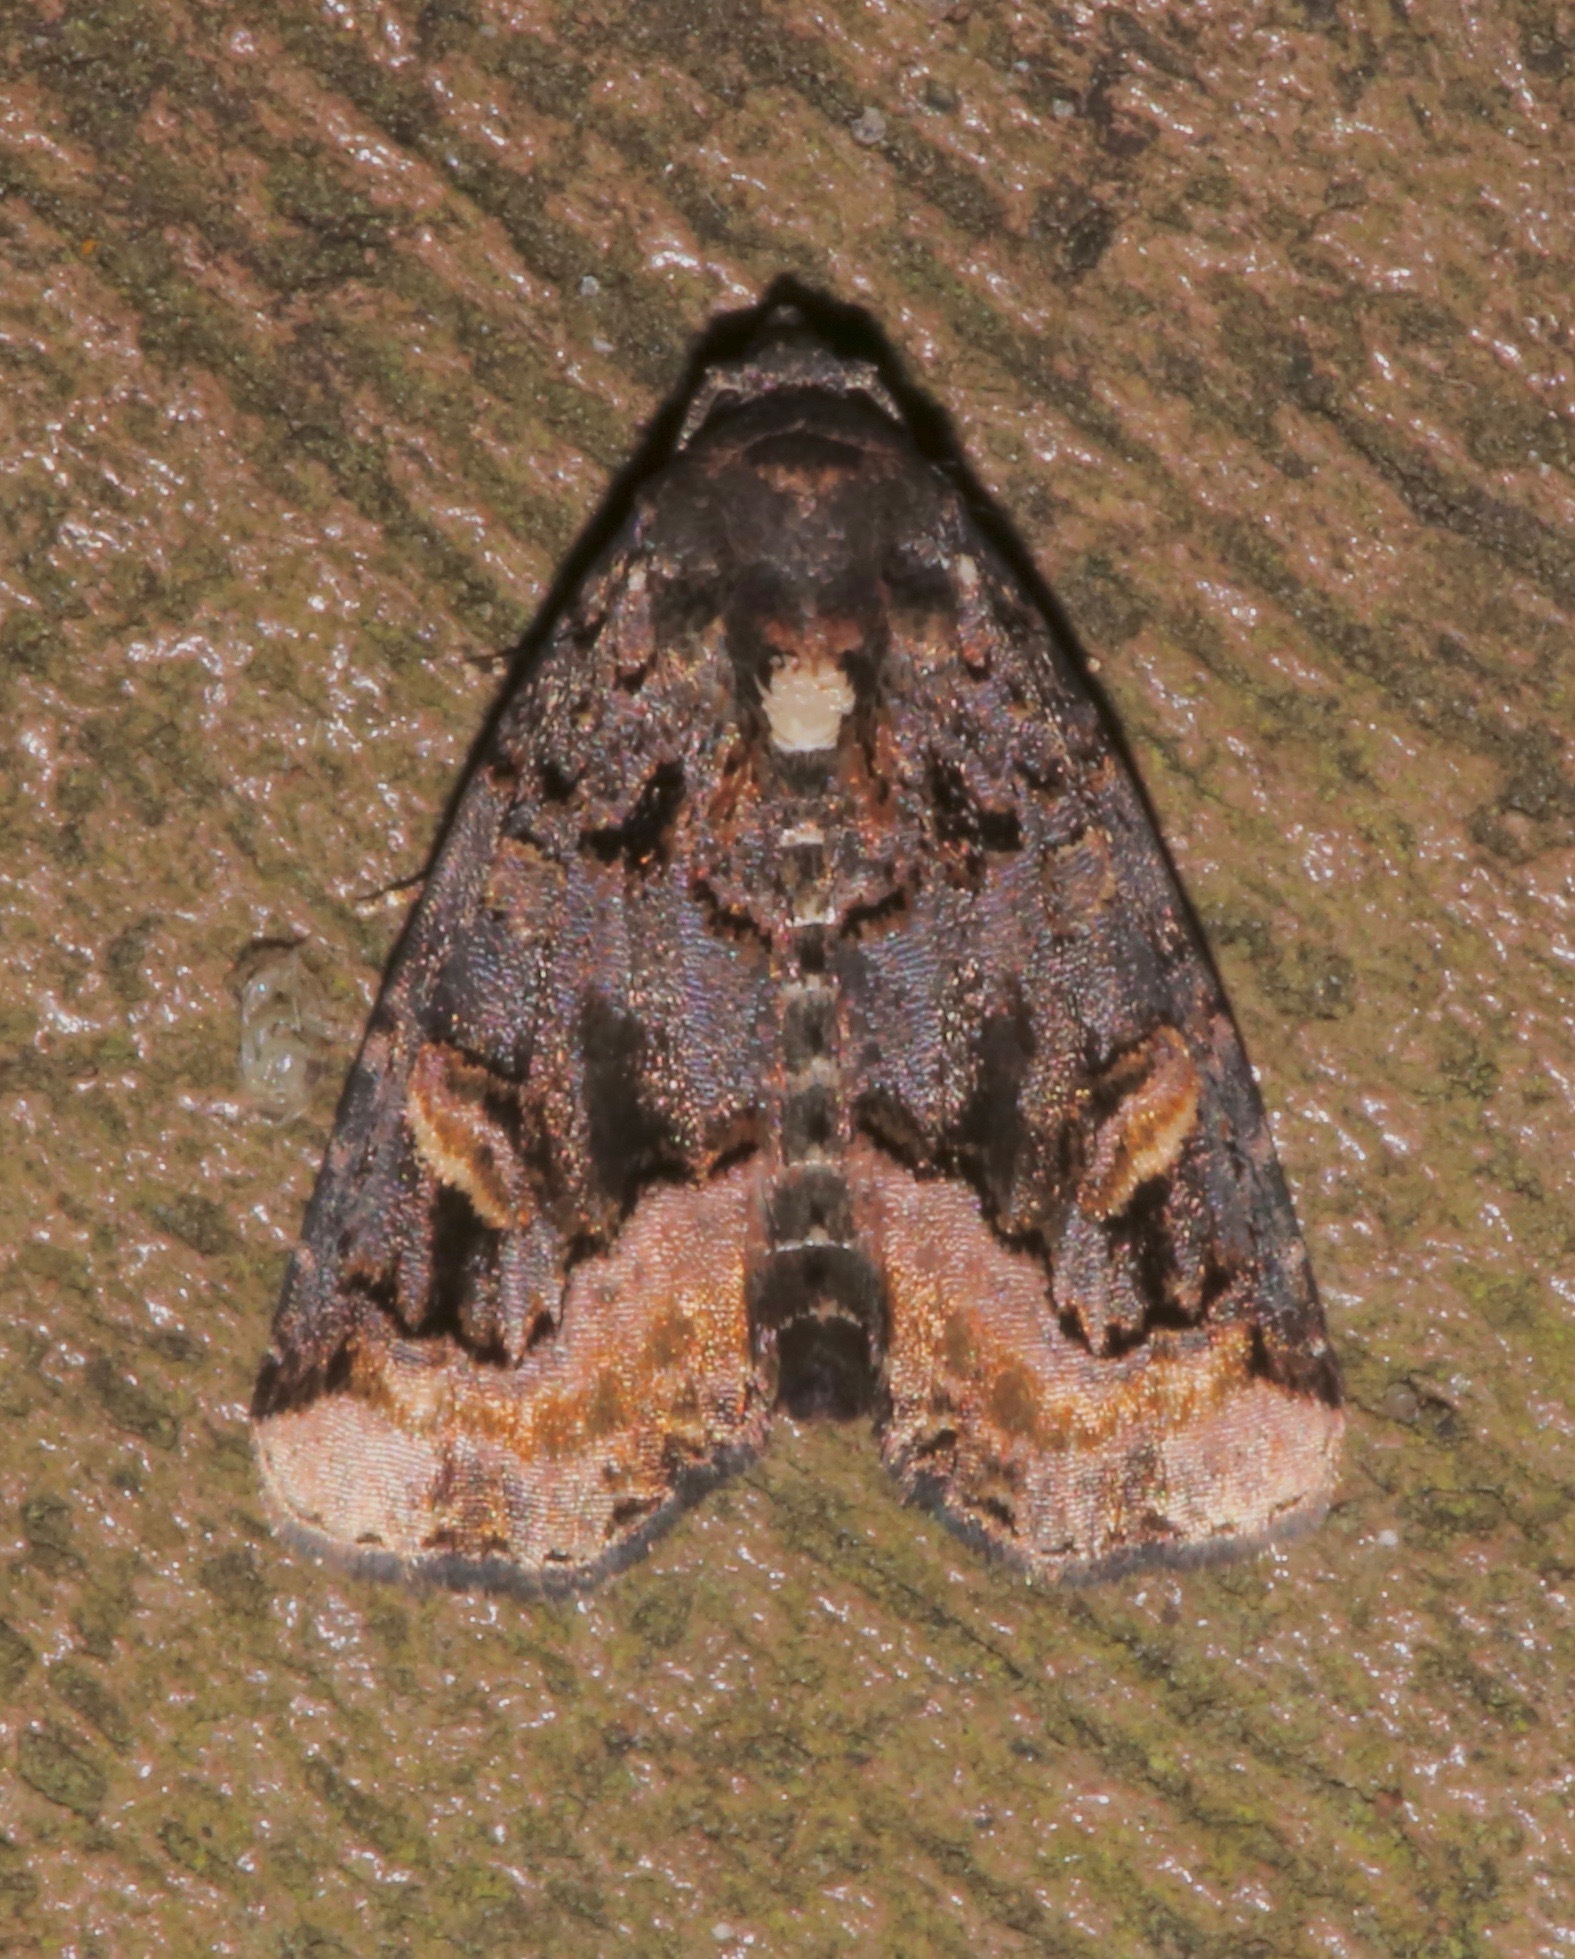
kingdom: Animalia
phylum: Arthropoda
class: Insecta
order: Lepidoptera
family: Noctuidae
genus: Homophoberia
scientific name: Homophoberia apicosa
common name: Black wedge-spot
